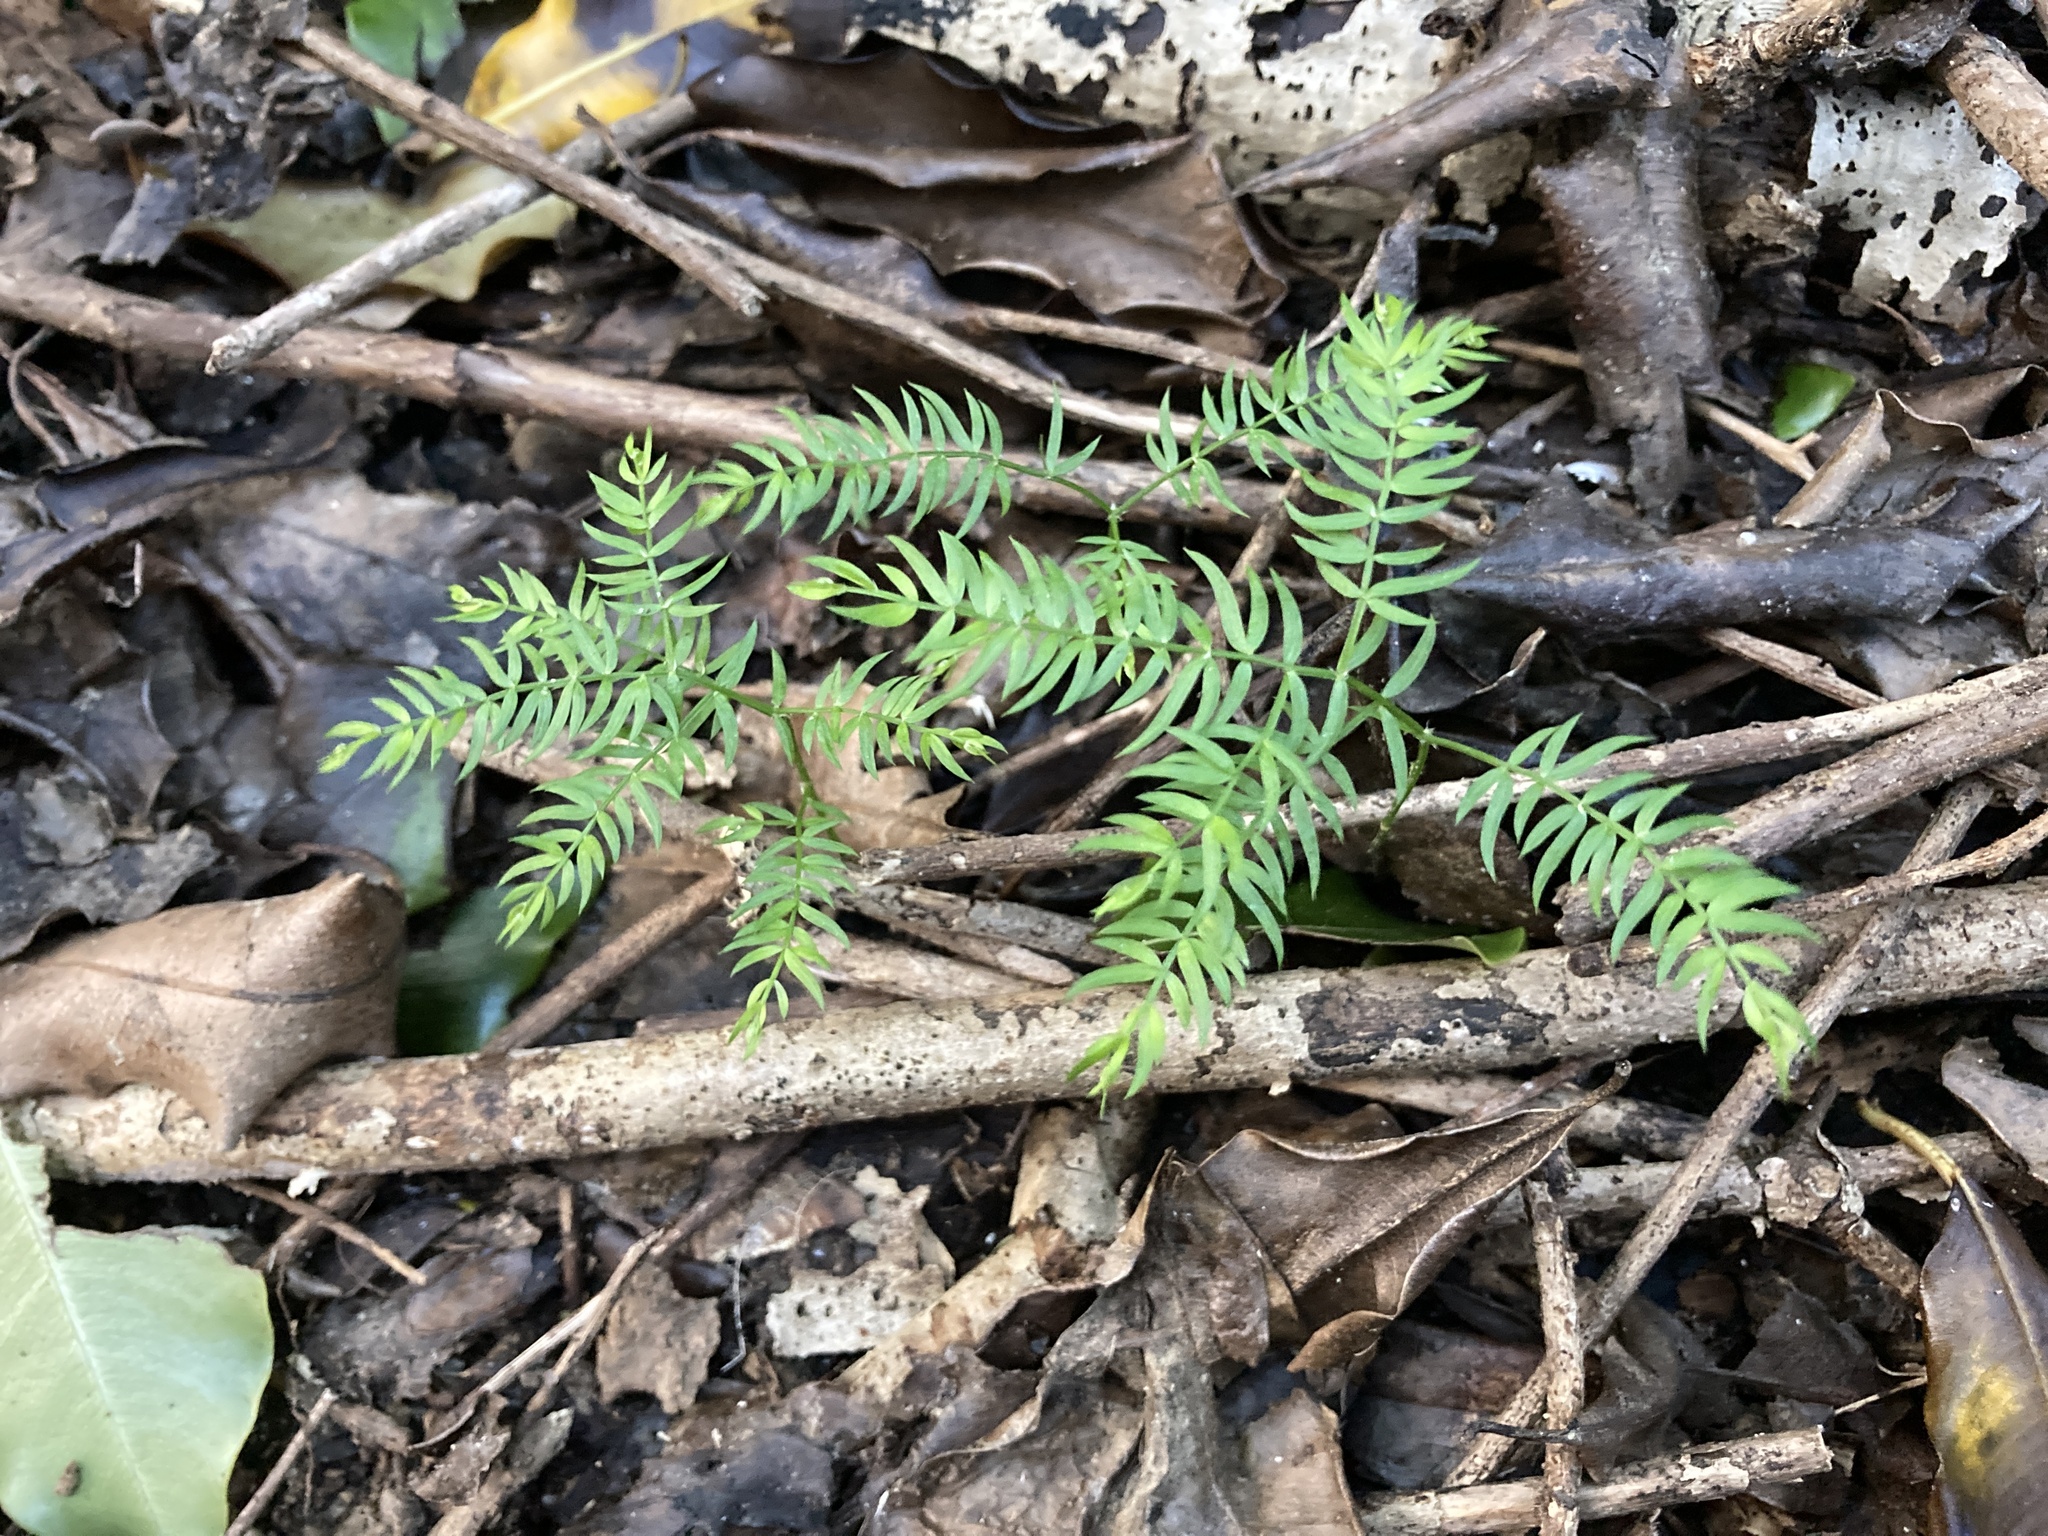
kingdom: Plantae
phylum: Tracheophyta
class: Liliopsida
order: Asparagales
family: Asparagaceae
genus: Asparagus
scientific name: Asparagus scandens
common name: Asparagus-fern
